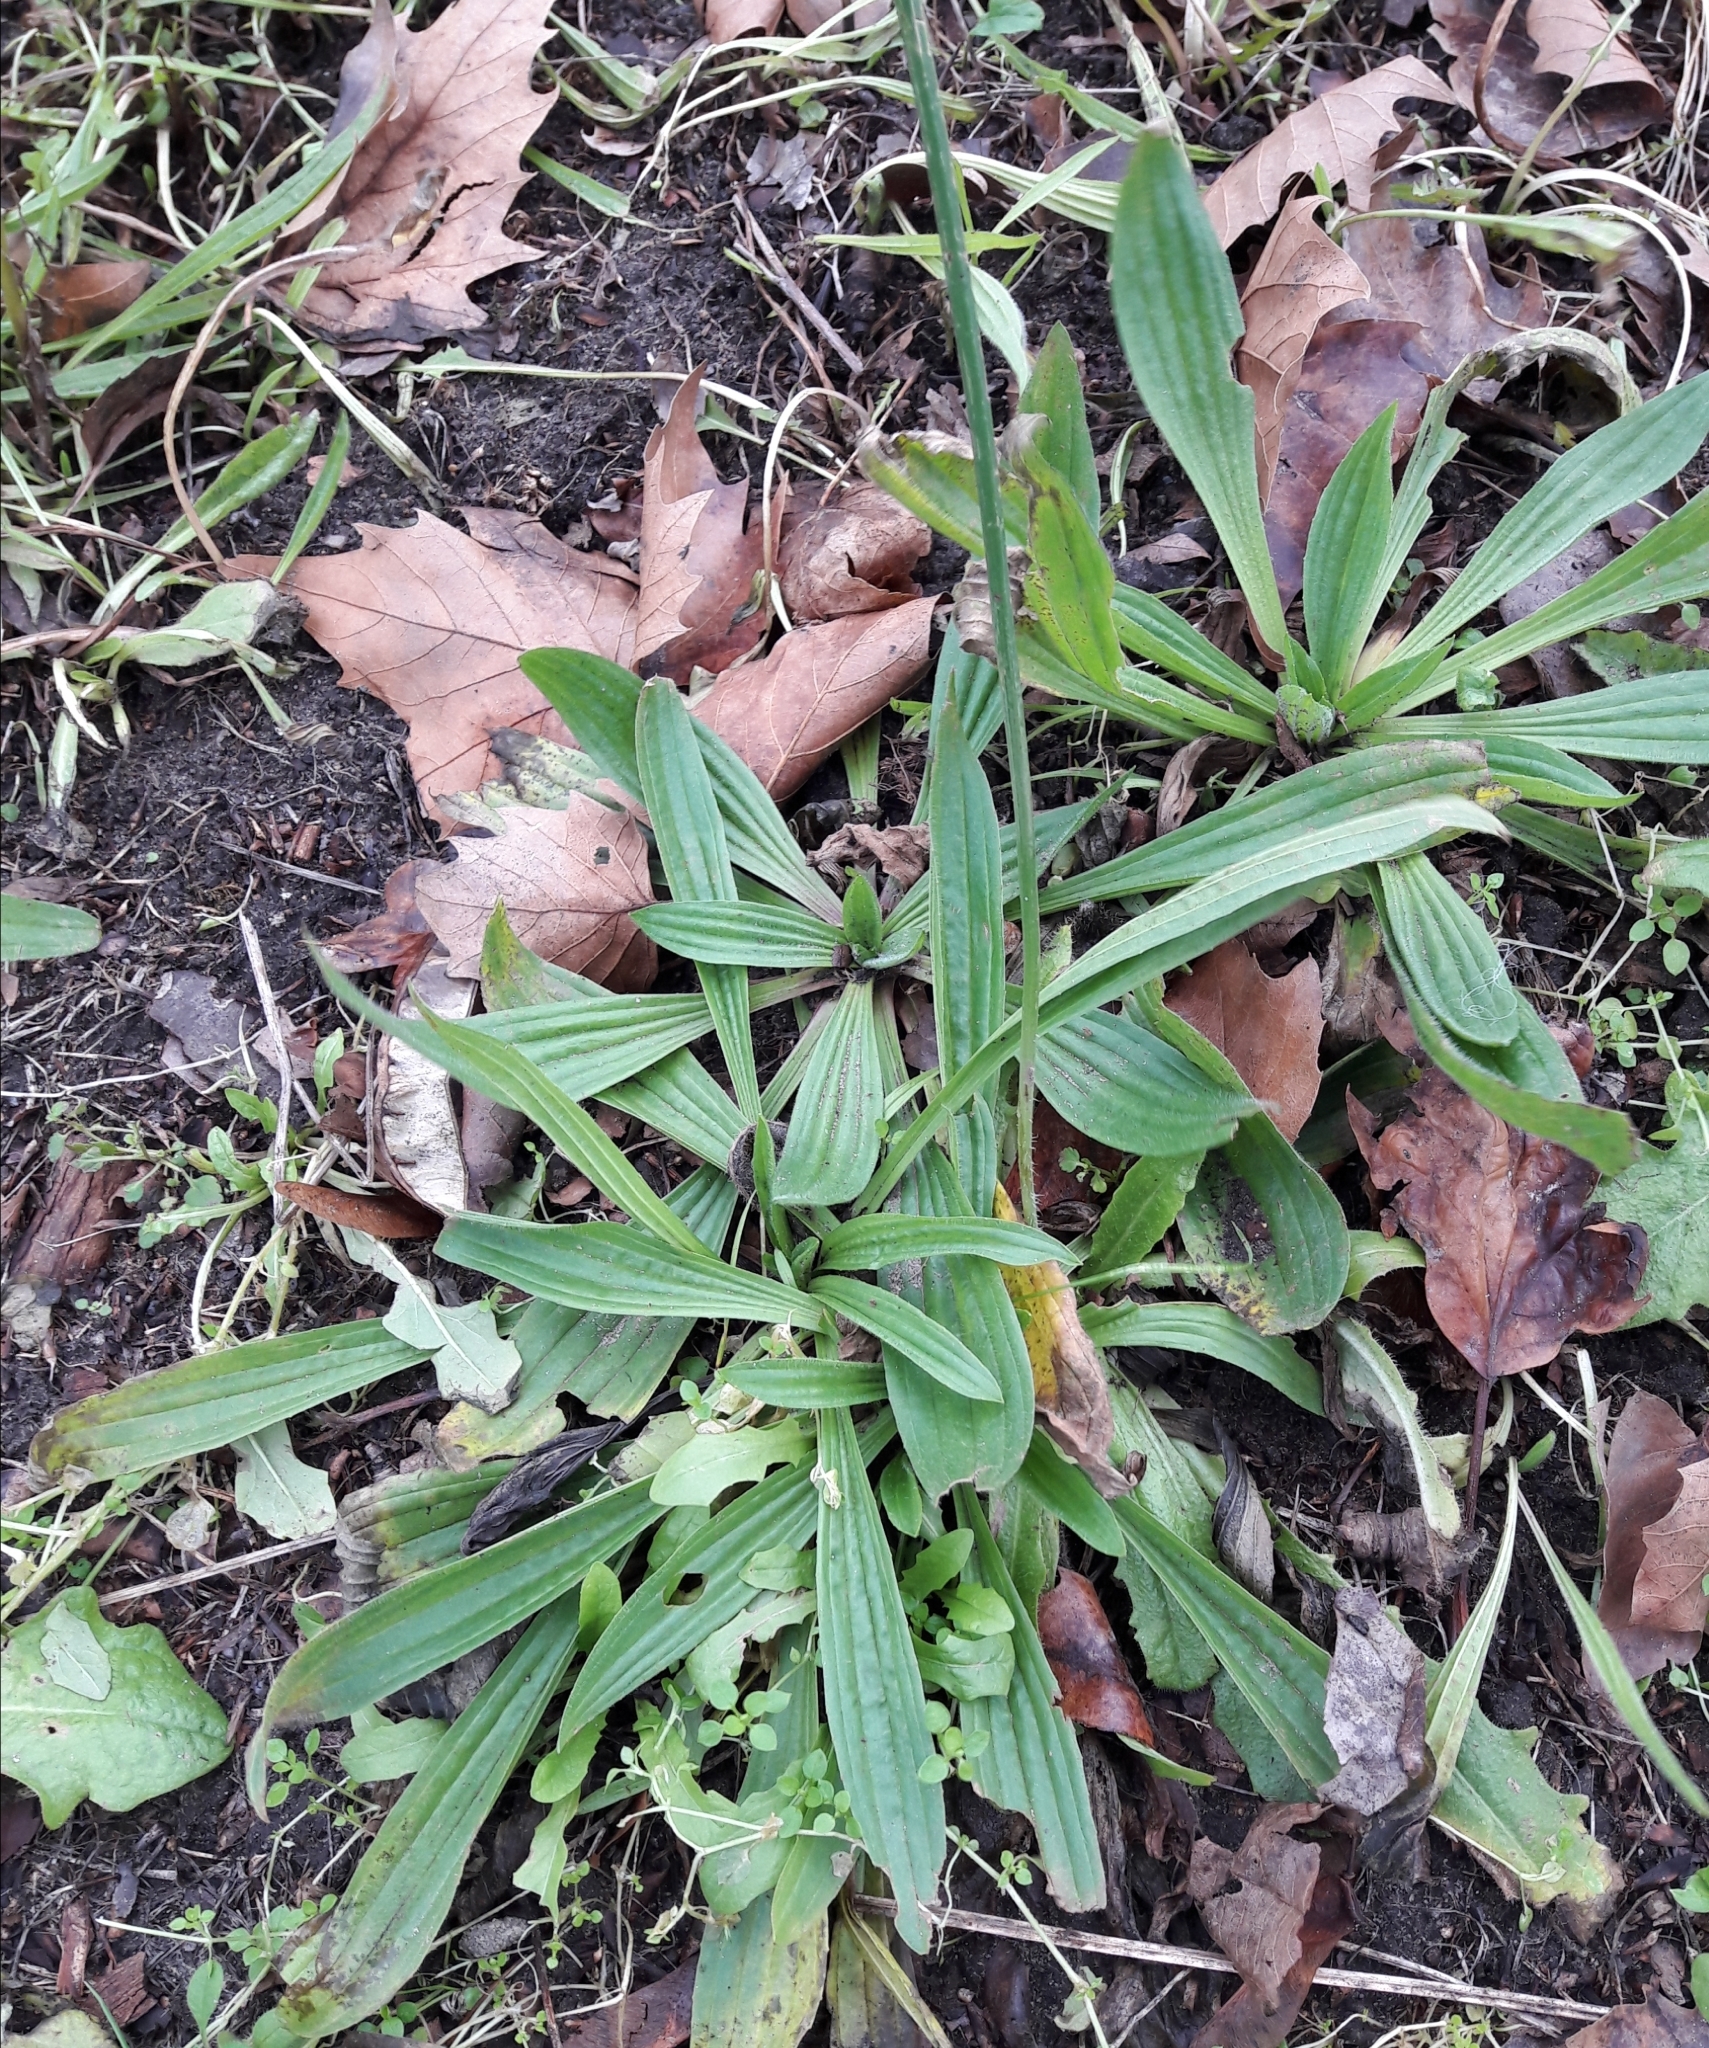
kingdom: Plantae
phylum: Tracheophyta
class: Magnoliopsida
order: Lamiales
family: Plantaginaceae
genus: Plantago
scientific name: Plantago lanceolata
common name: Ribwort plantain
